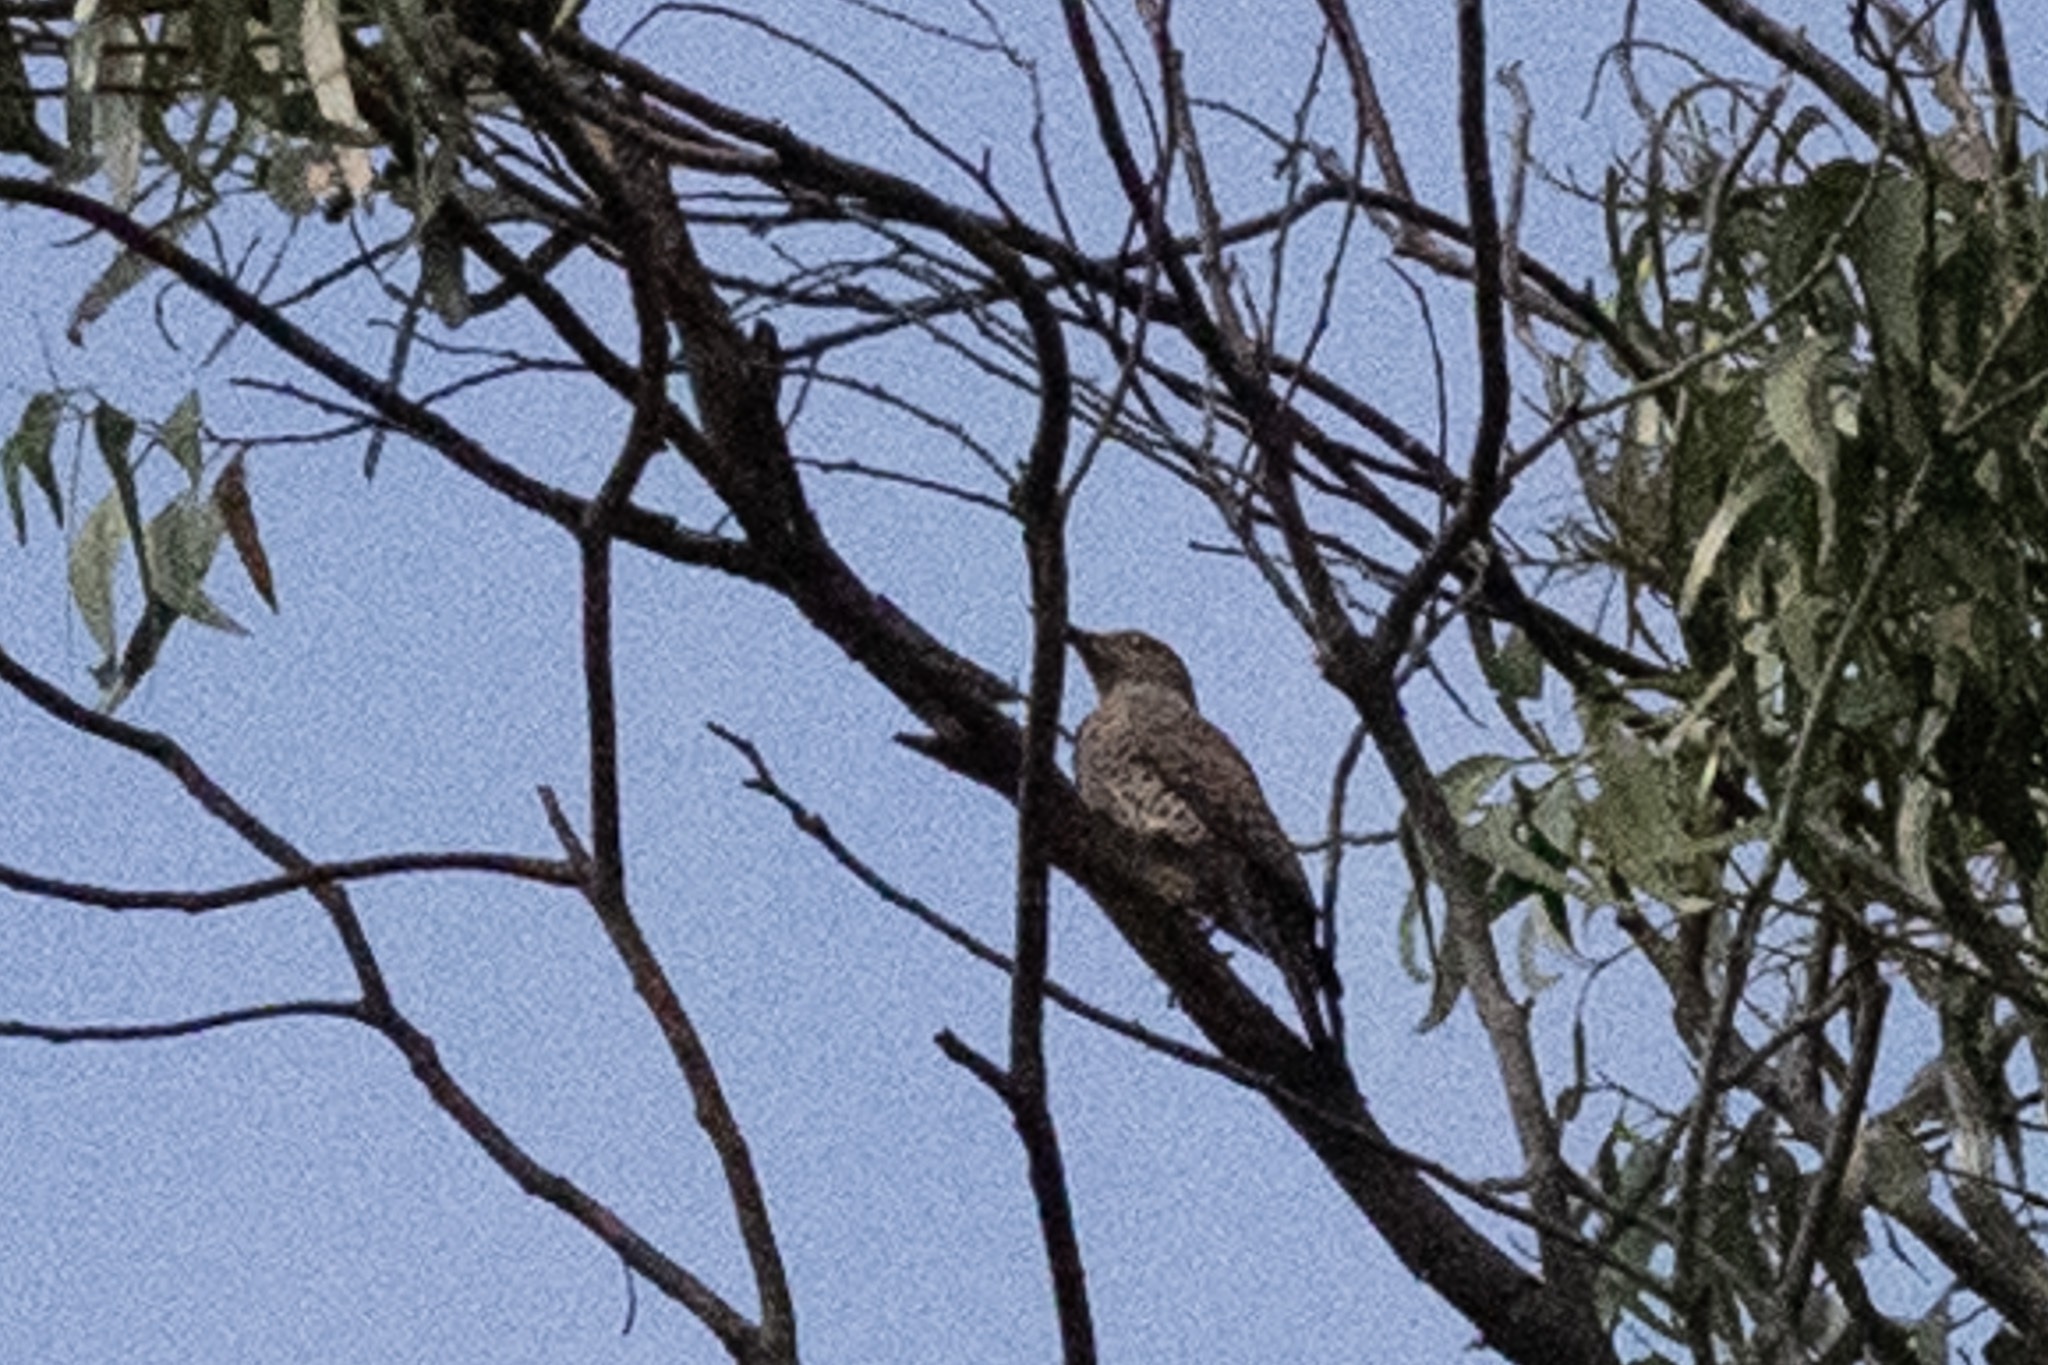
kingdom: Animalia
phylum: Chordata
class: Aves
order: Piciformes
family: Picidae
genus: Colaptes
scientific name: Colaptes auratus
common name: Northern flicker
